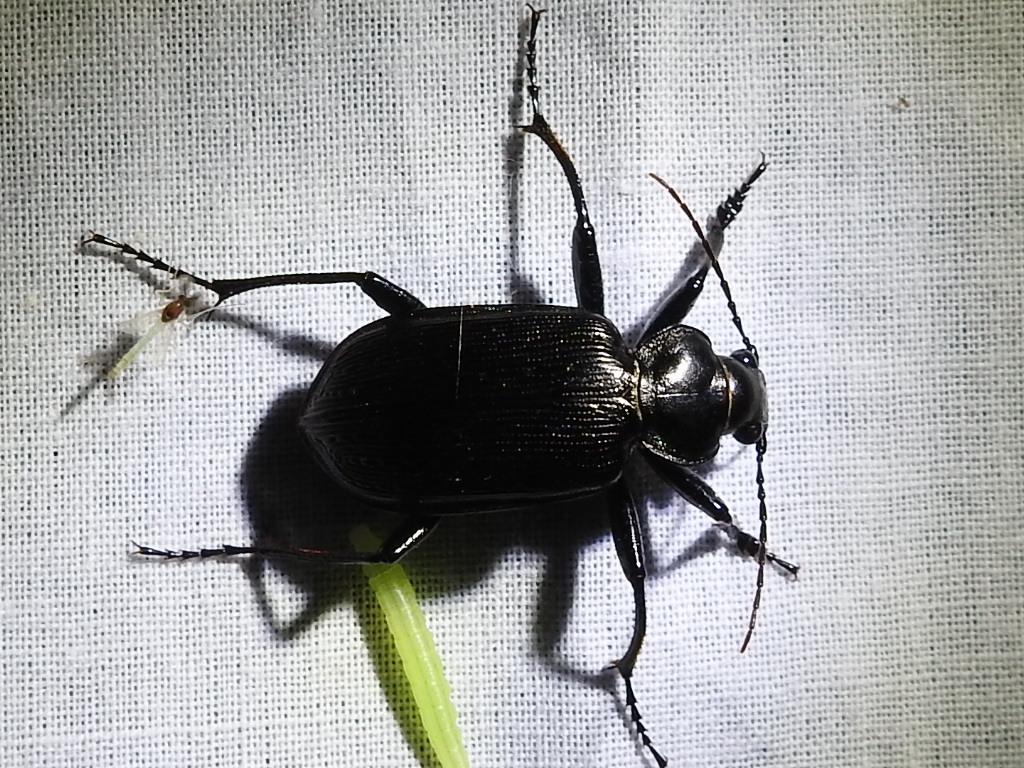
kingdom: Animalia
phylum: Arthropoda
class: Insecta
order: Coleoptera
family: Carabidae
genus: Calosoma
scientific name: Calosoma sayi
